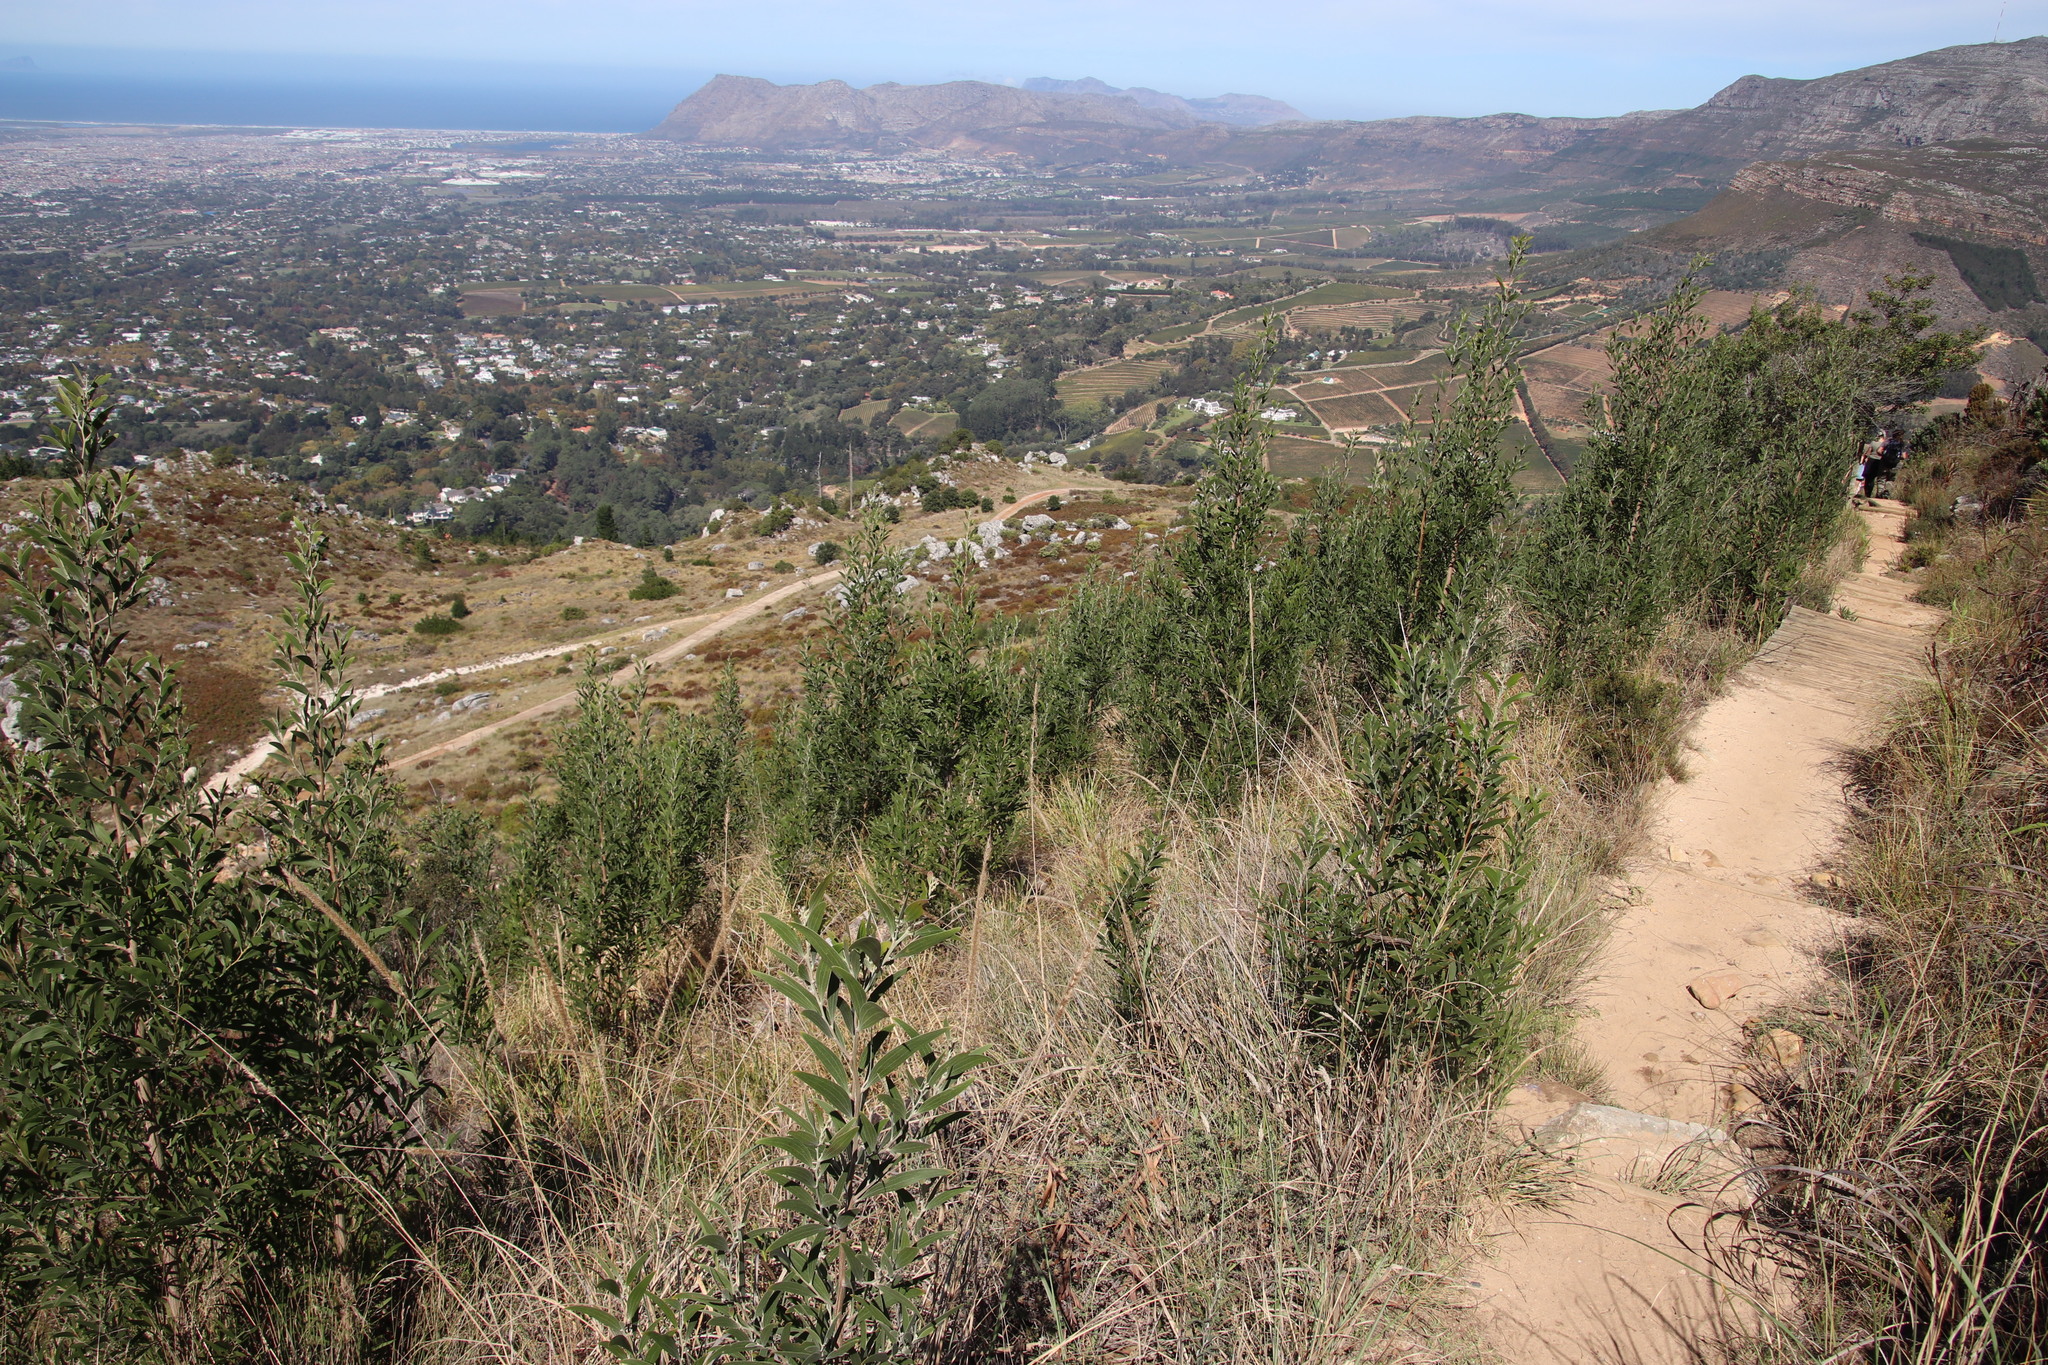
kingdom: Plantae
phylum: Tracheophyta
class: Magnoliopsida
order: Fabales
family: Fabaceae
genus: Acacia
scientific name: Acacia melanoxylon
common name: Blackwood
